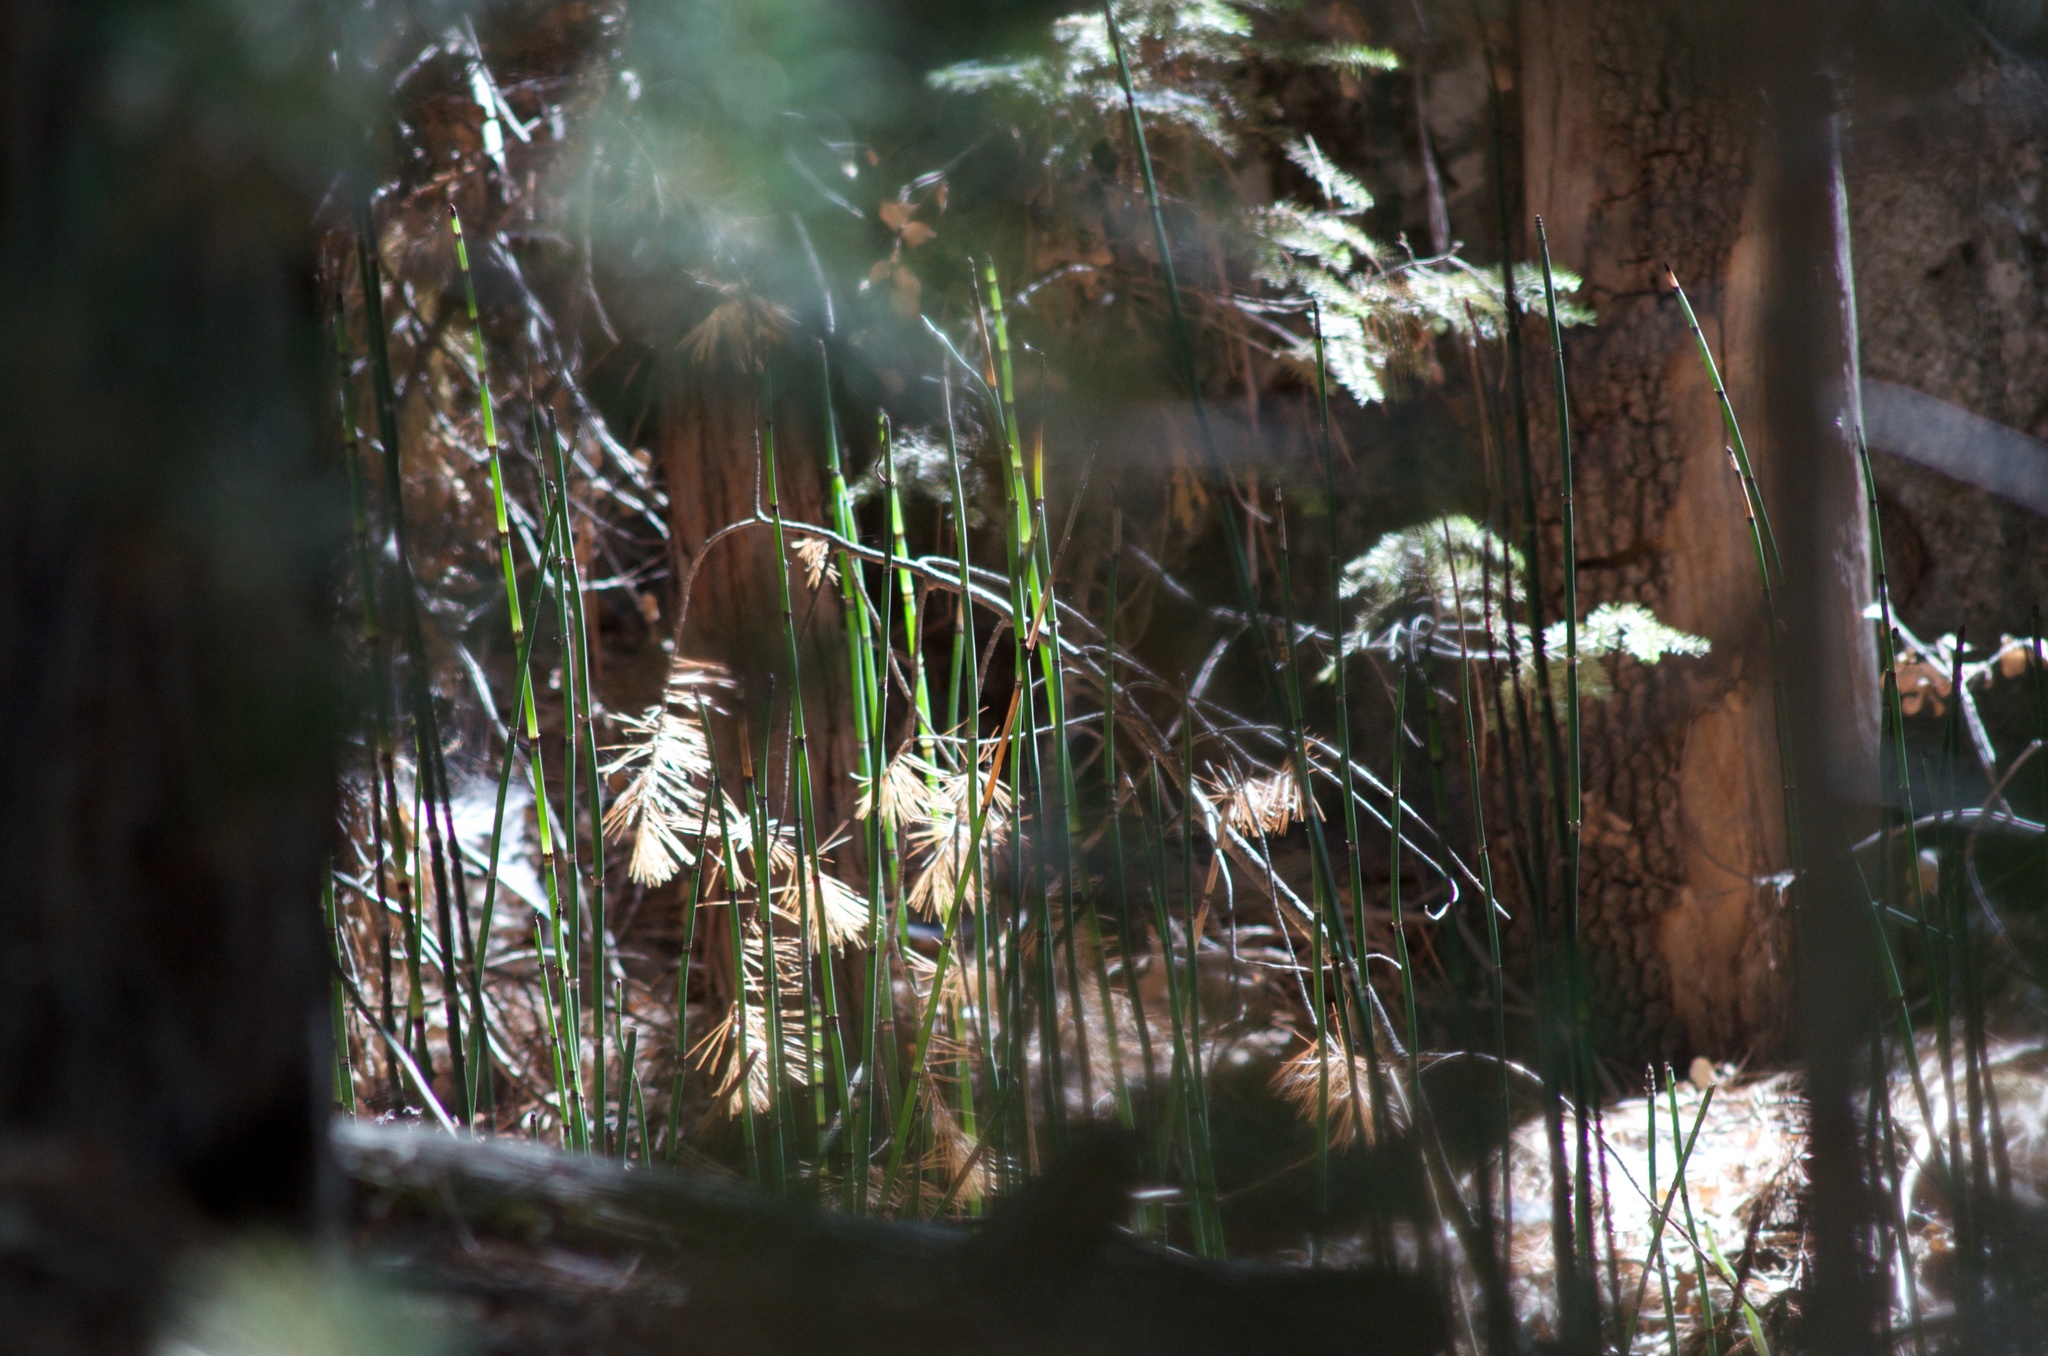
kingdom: Plantae
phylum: Tracheophyta
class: Polypodiopsida
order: Equisetales
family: Equisetaceae
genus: Equisetum
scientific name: Equisetum praealtum
